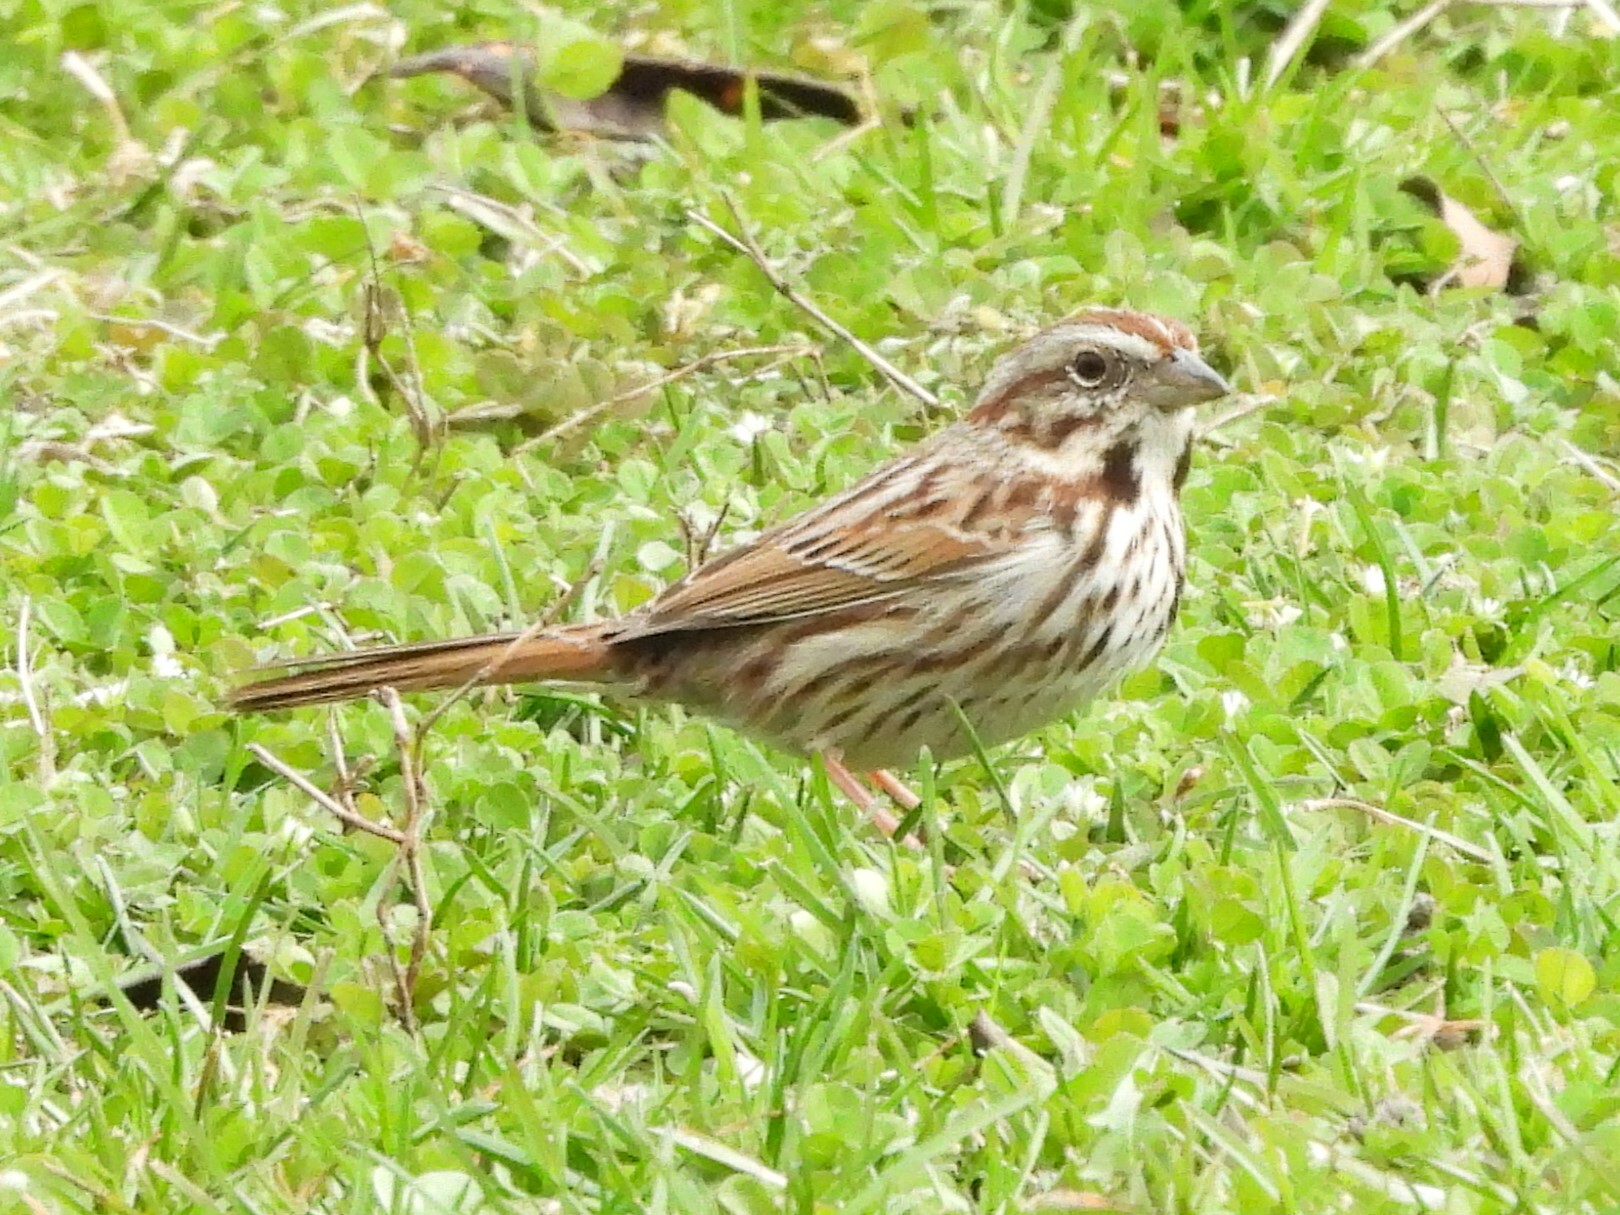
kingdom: Animalia
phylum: Chordata
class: Aves
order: Passeriformes
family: Passerellidae
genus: Melospiza
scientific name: Melospiza melodia
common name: Song sparrow
